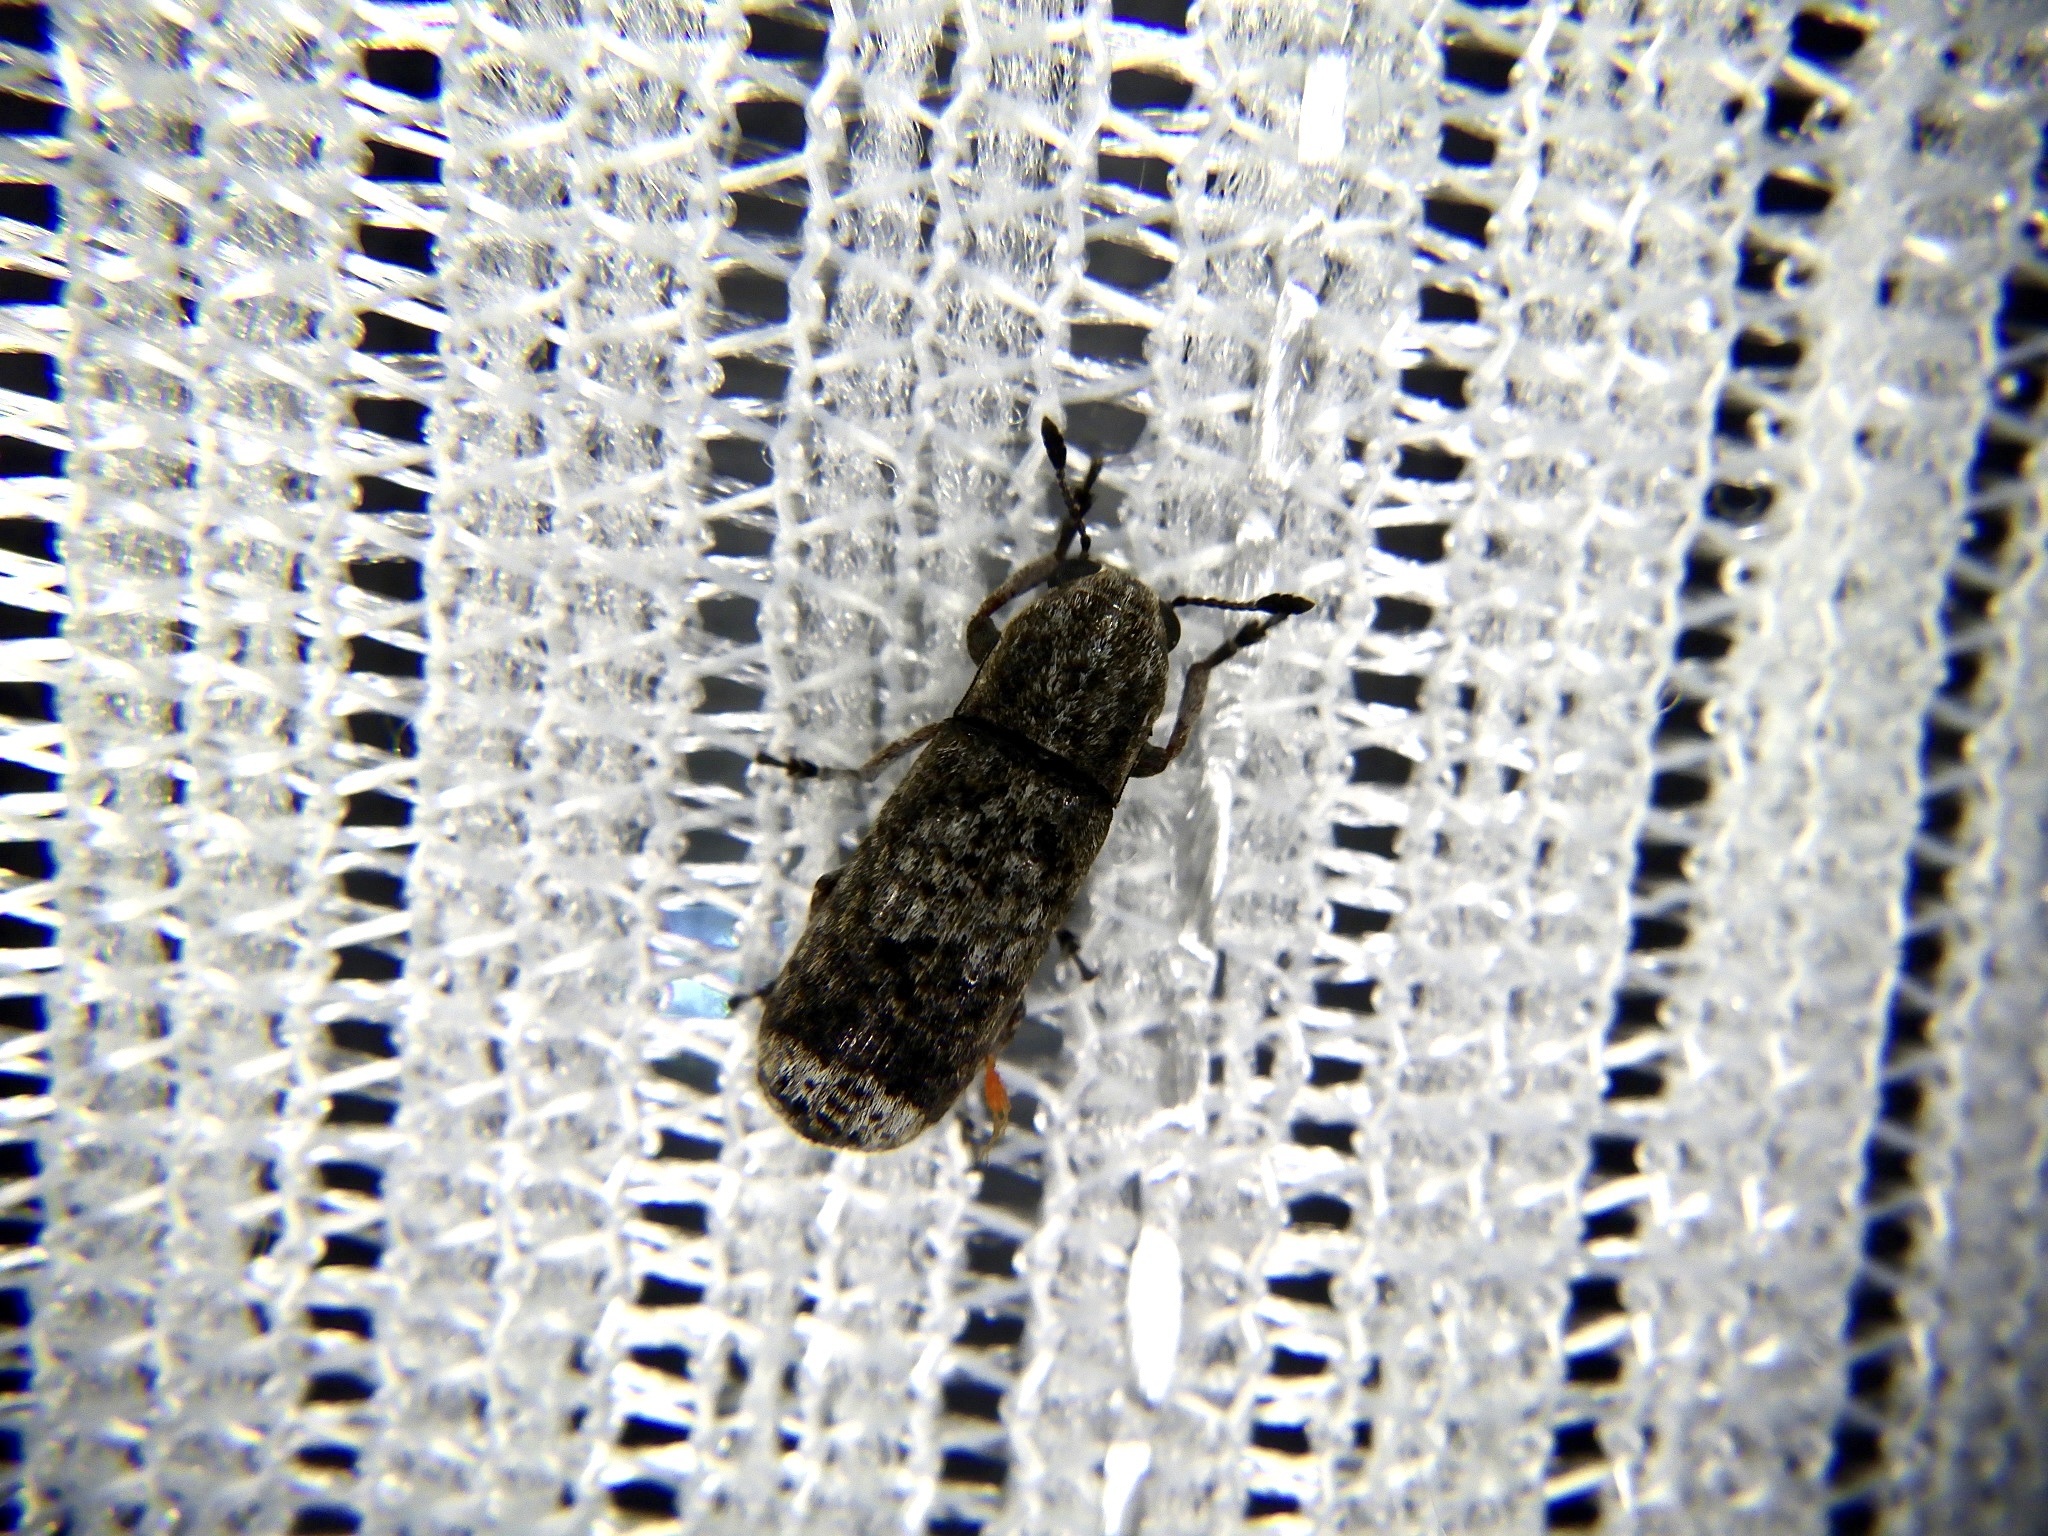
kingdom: Animalia
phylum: Arthropoda
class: Insecta
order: Coleoptera
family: Anthribidae
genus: Ozotomerus
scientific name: Ozotomerus japonicus
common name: Old world fungus weevil
